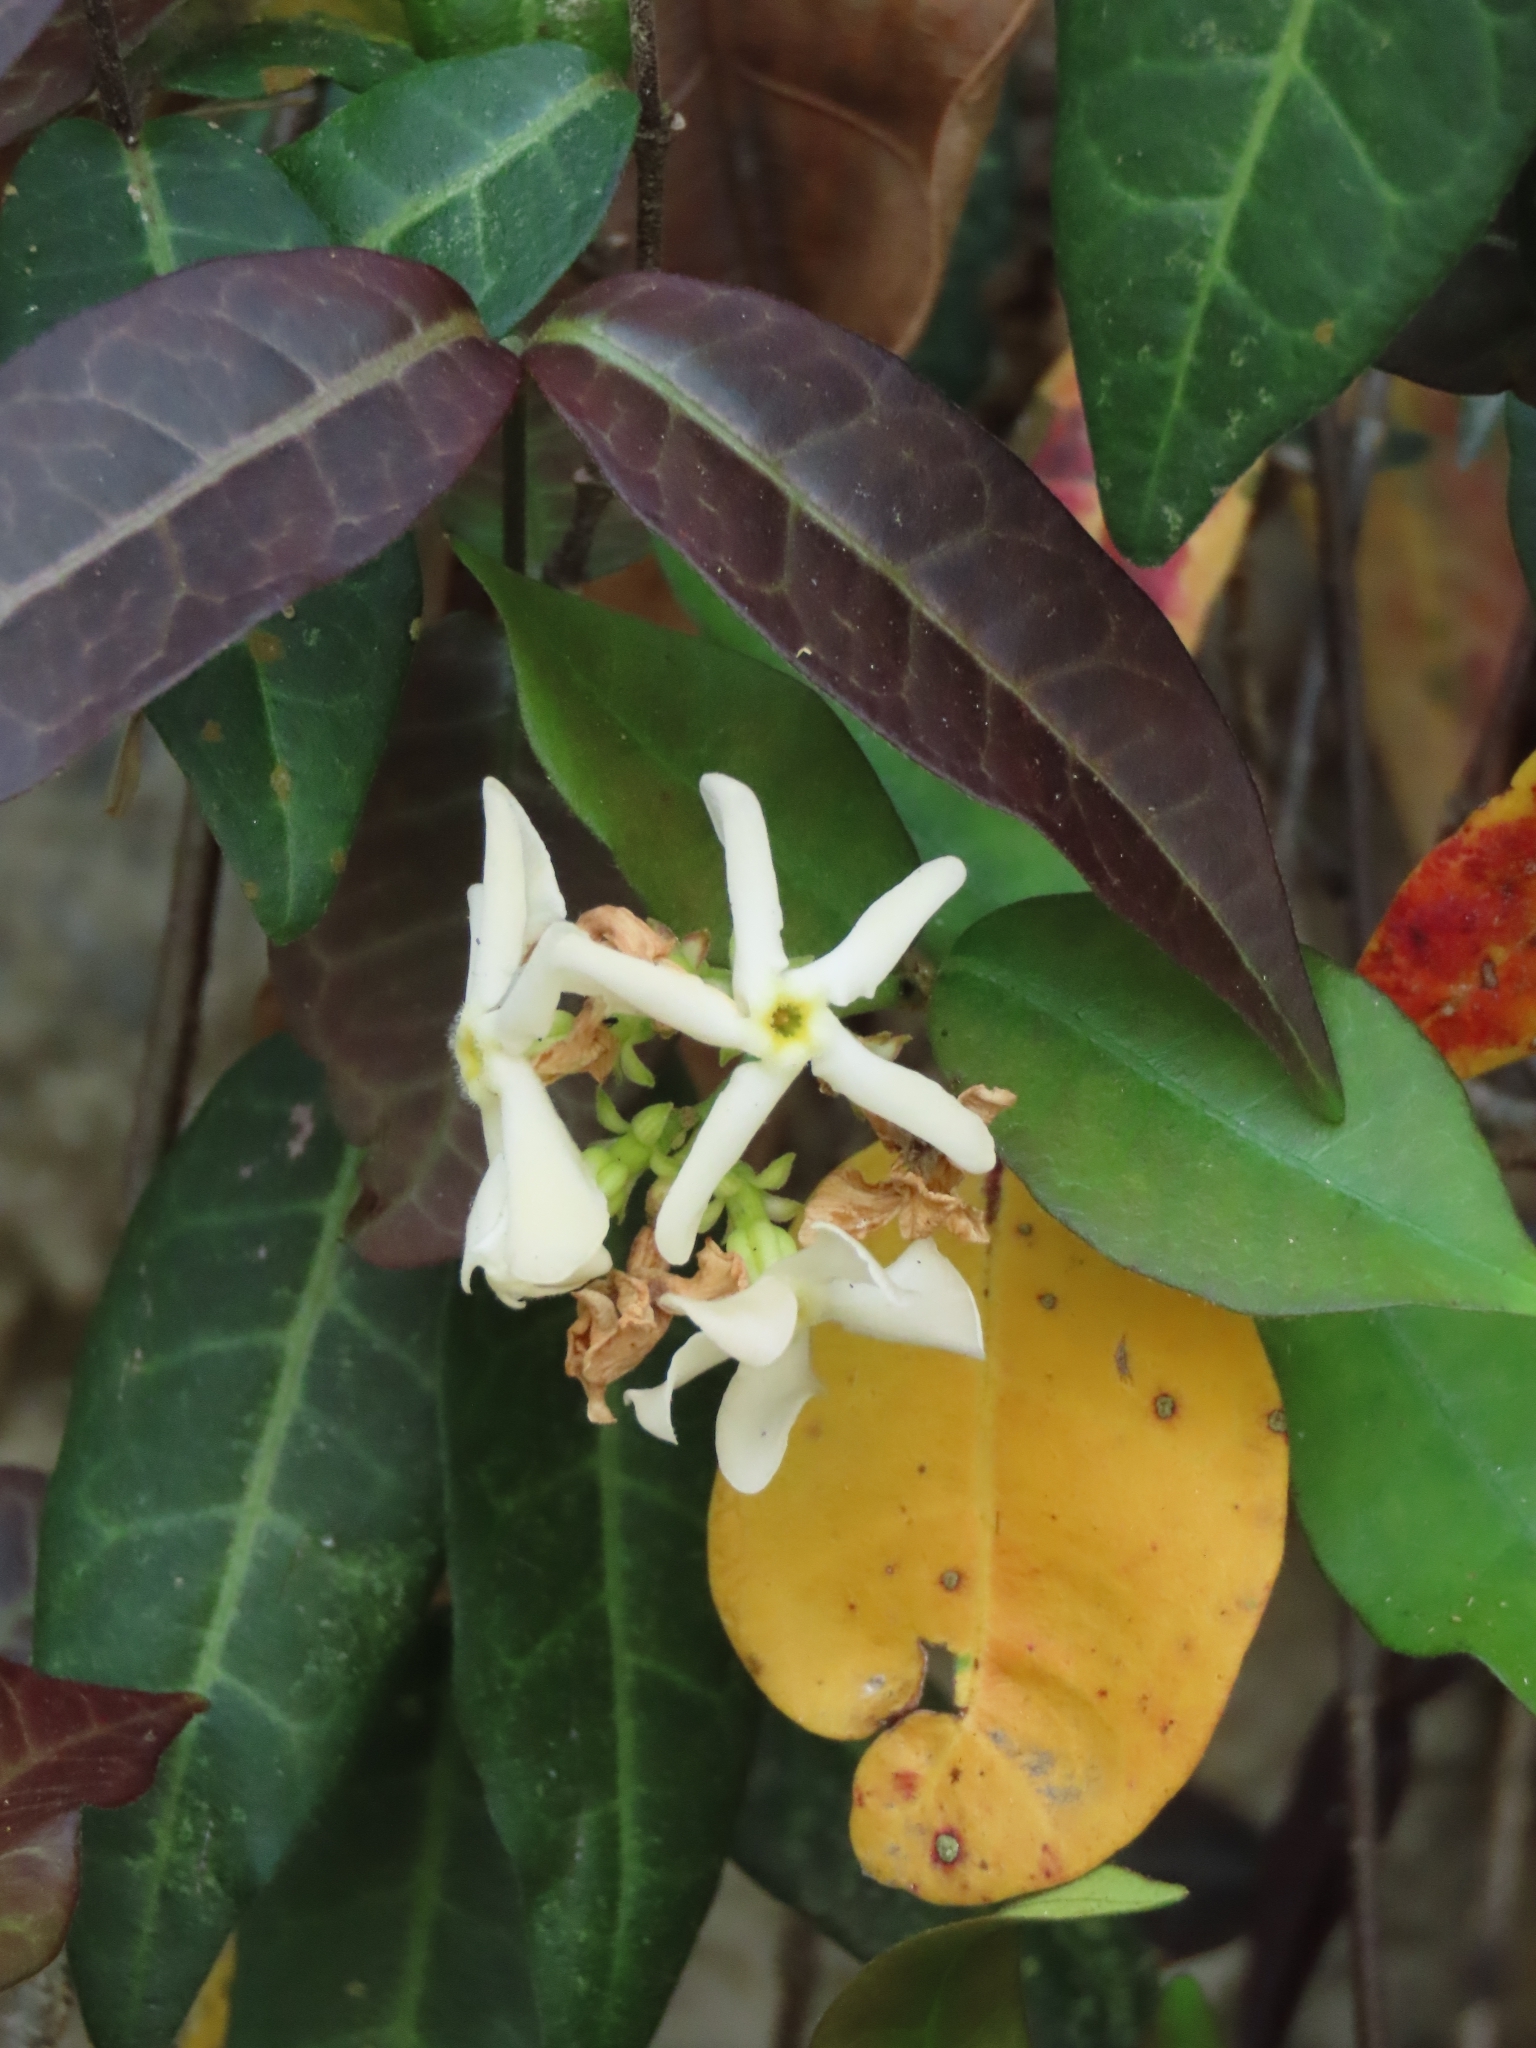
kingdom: Plantae
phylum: Tracheophyta
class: Magnoliopsida
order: Gentianales
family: Apocynaceae
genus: Trachelospermum
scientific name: Trachelospermum jasminoides
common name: Confederate jasmine
